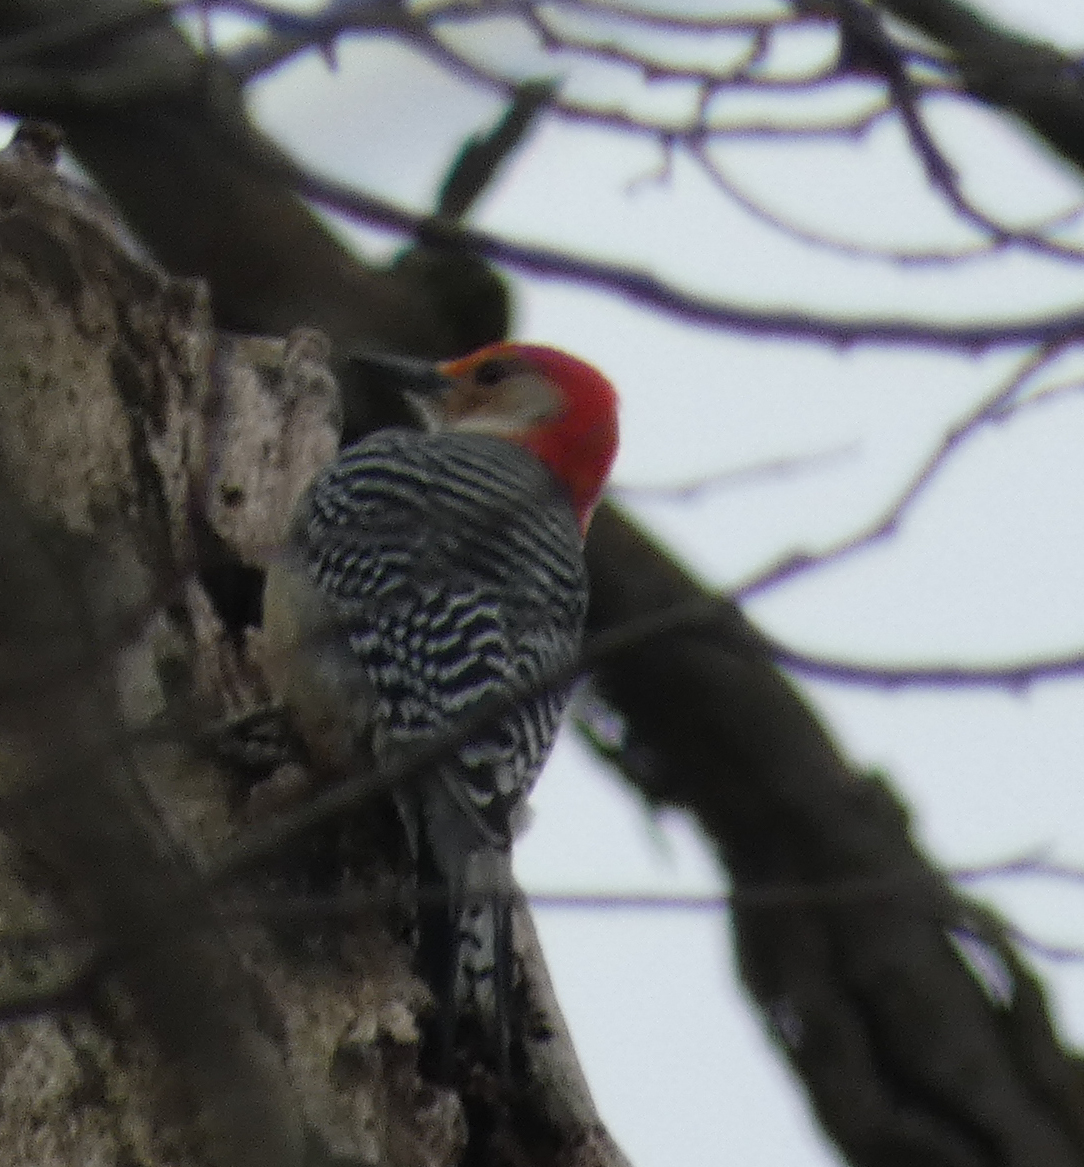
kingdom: Animalia
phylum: Chordata
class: Aves
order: Piciformes
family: Picidae
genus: Melanerpes
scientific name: Melanerpes carolinus
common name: Red-bellied woodpecker
